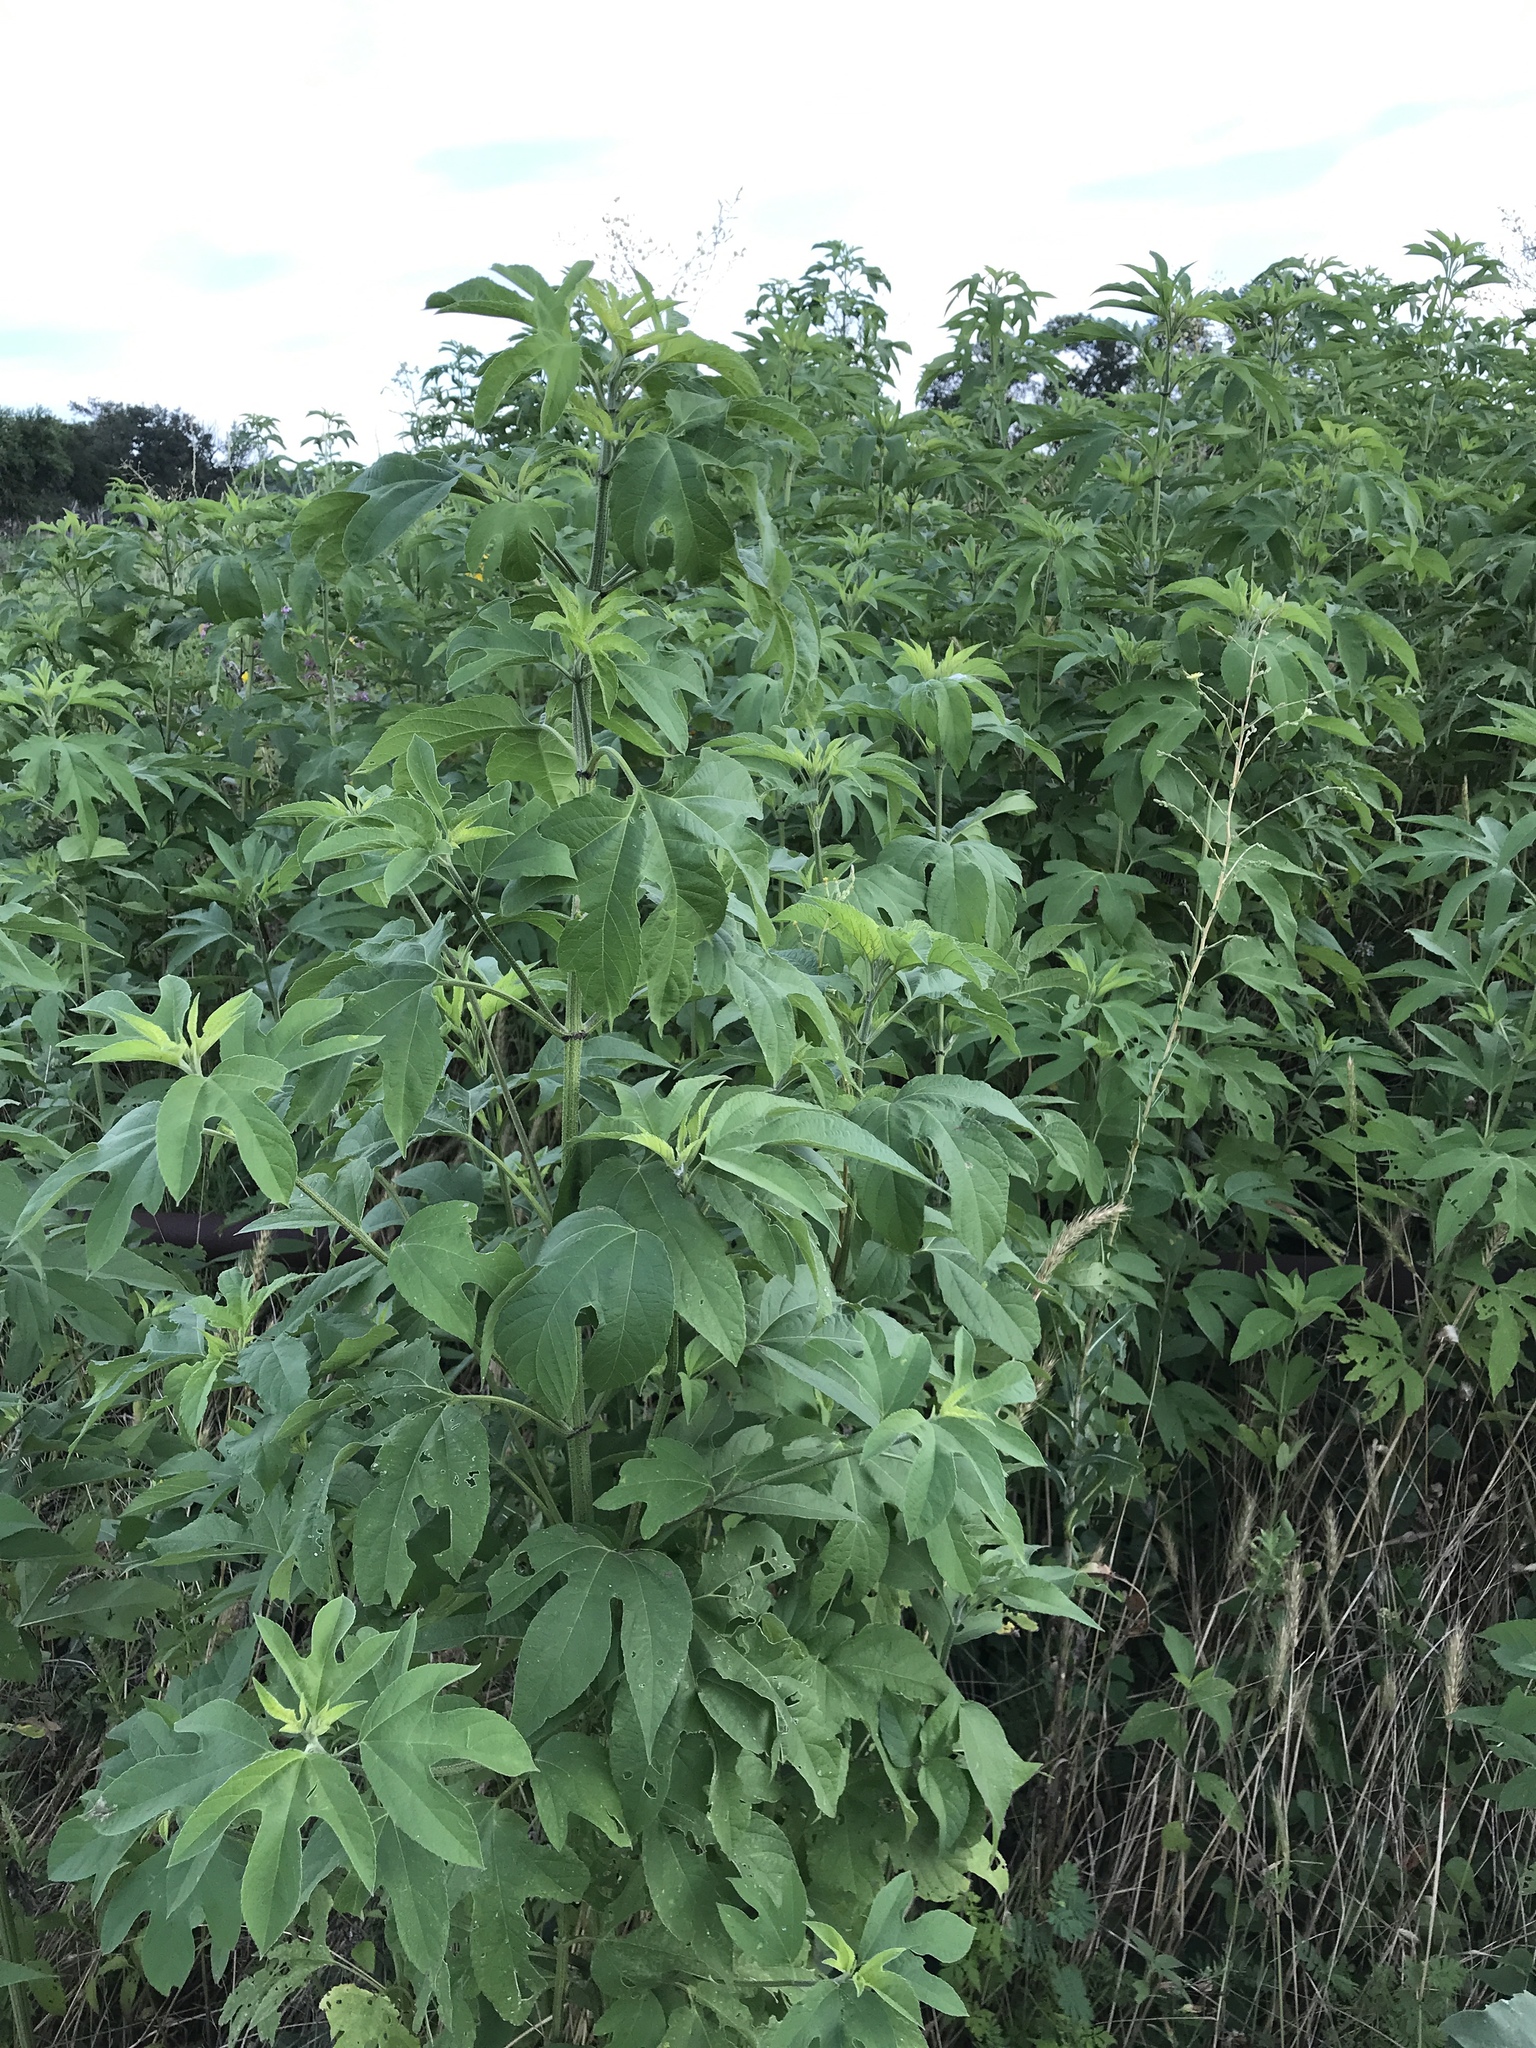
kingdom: Plantae
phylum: Tracheophyta
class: Magnoliopsida
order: Asterales
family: Asteraceae
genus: Ambrosia
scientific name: Ambrosia trifida
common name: Giant ragweed
